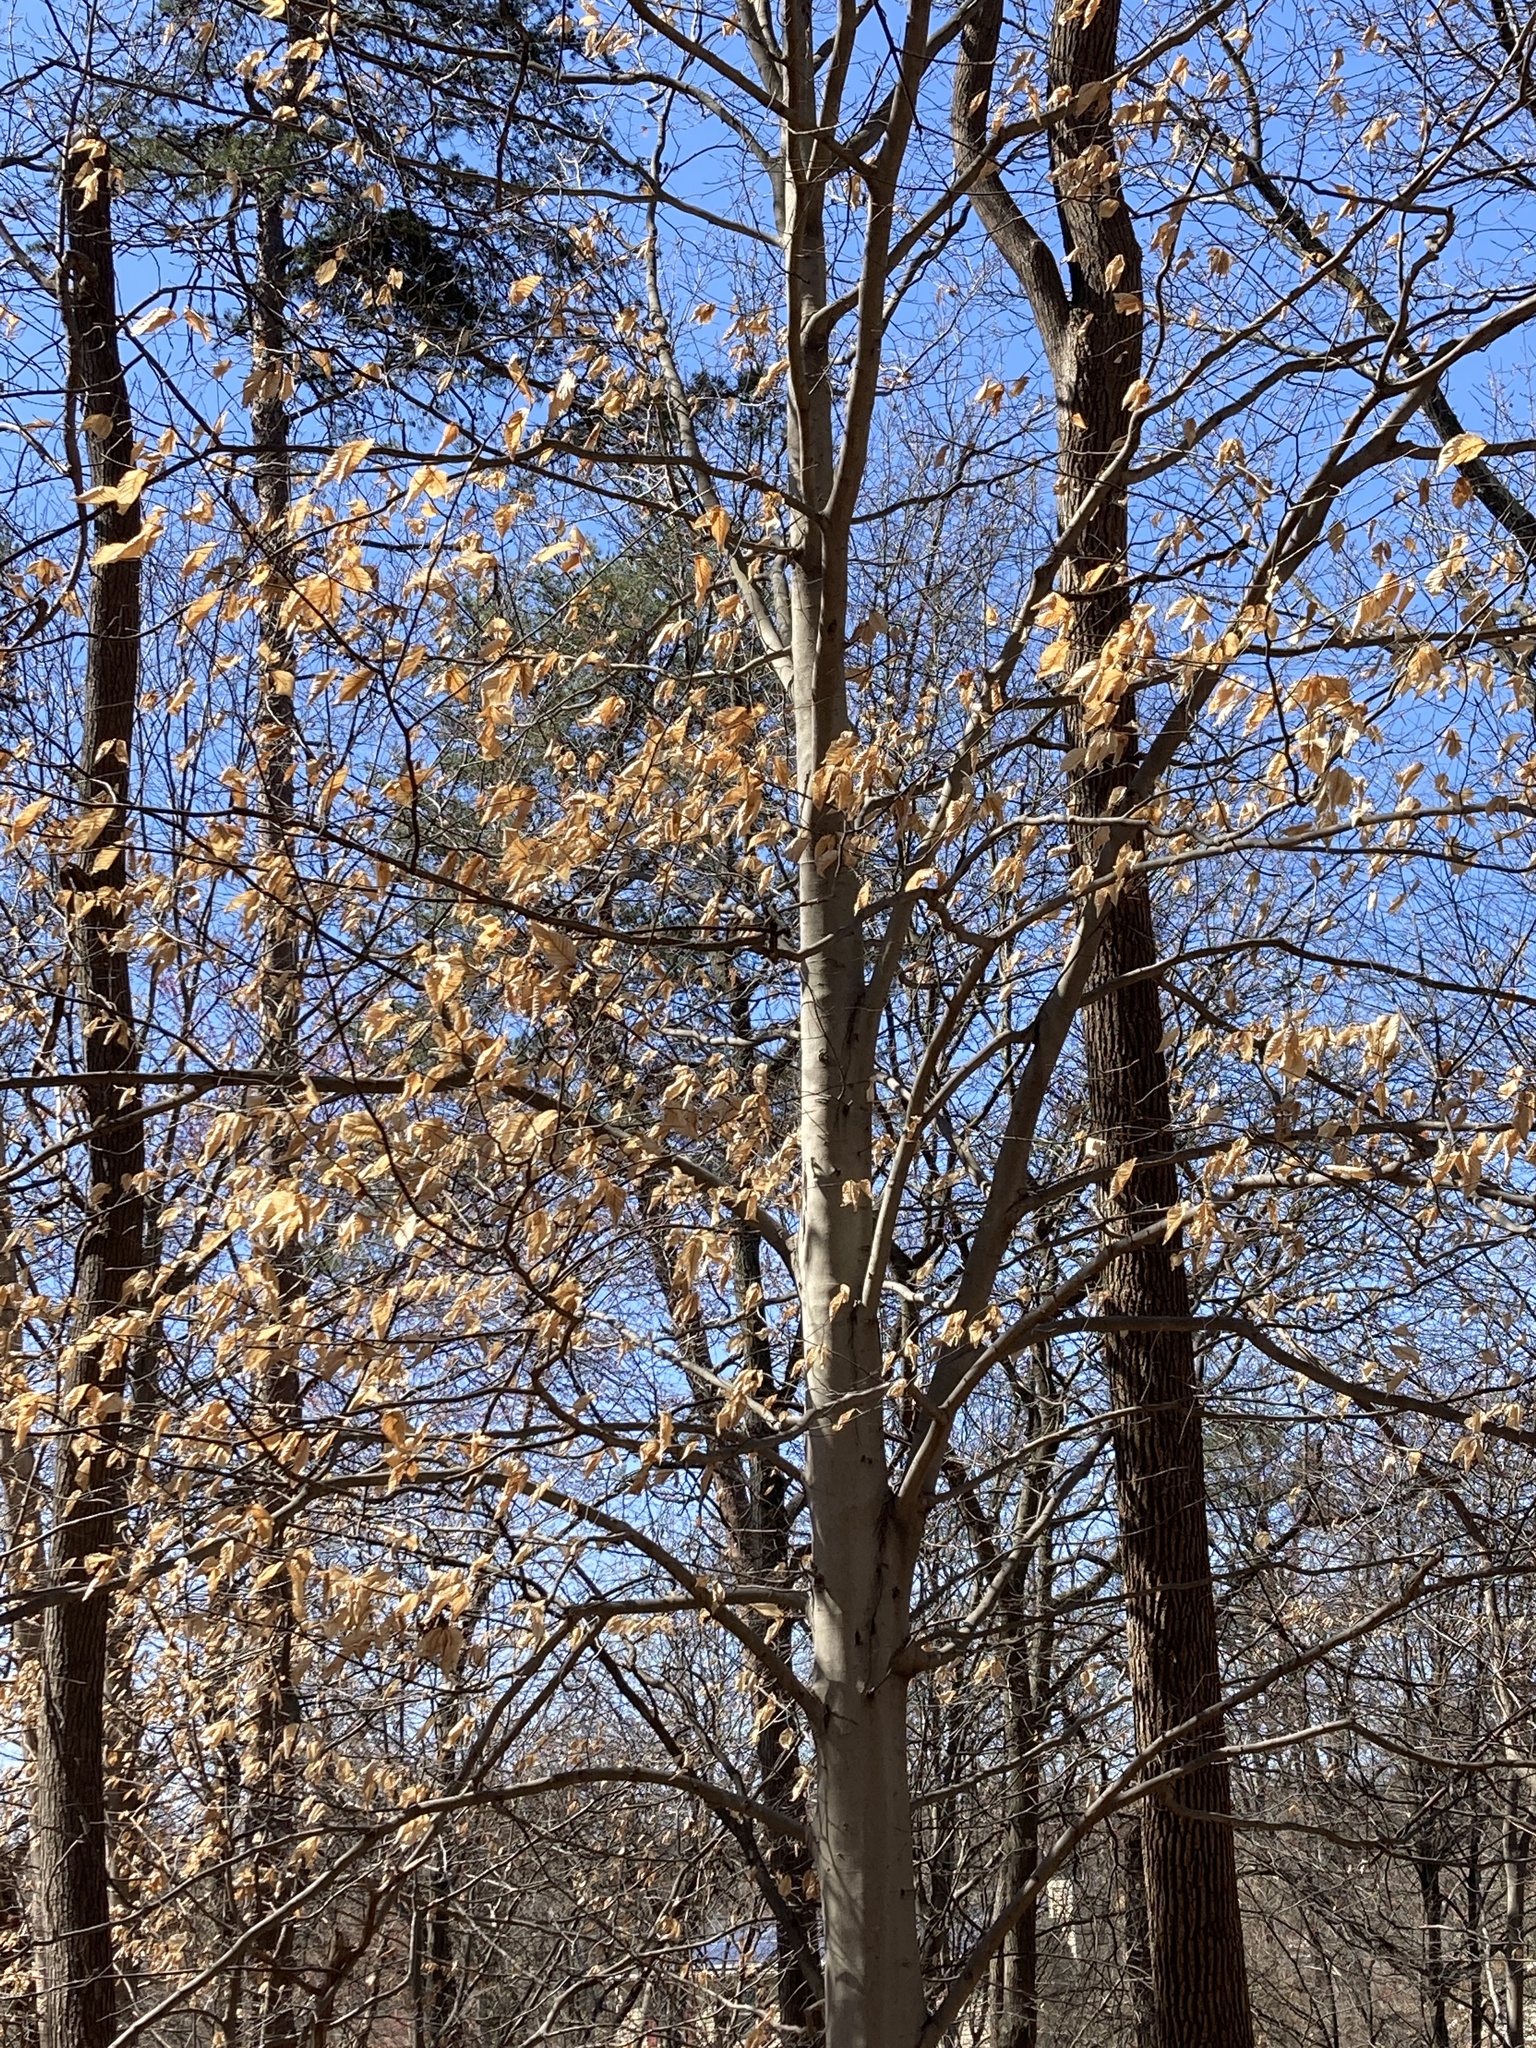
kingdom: Plantae
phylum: Tracheophyta
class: Magnoliopsida
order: Fagales
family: Fagaceae
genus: Fagus
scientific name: Fagus grandifolia
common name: American beech
